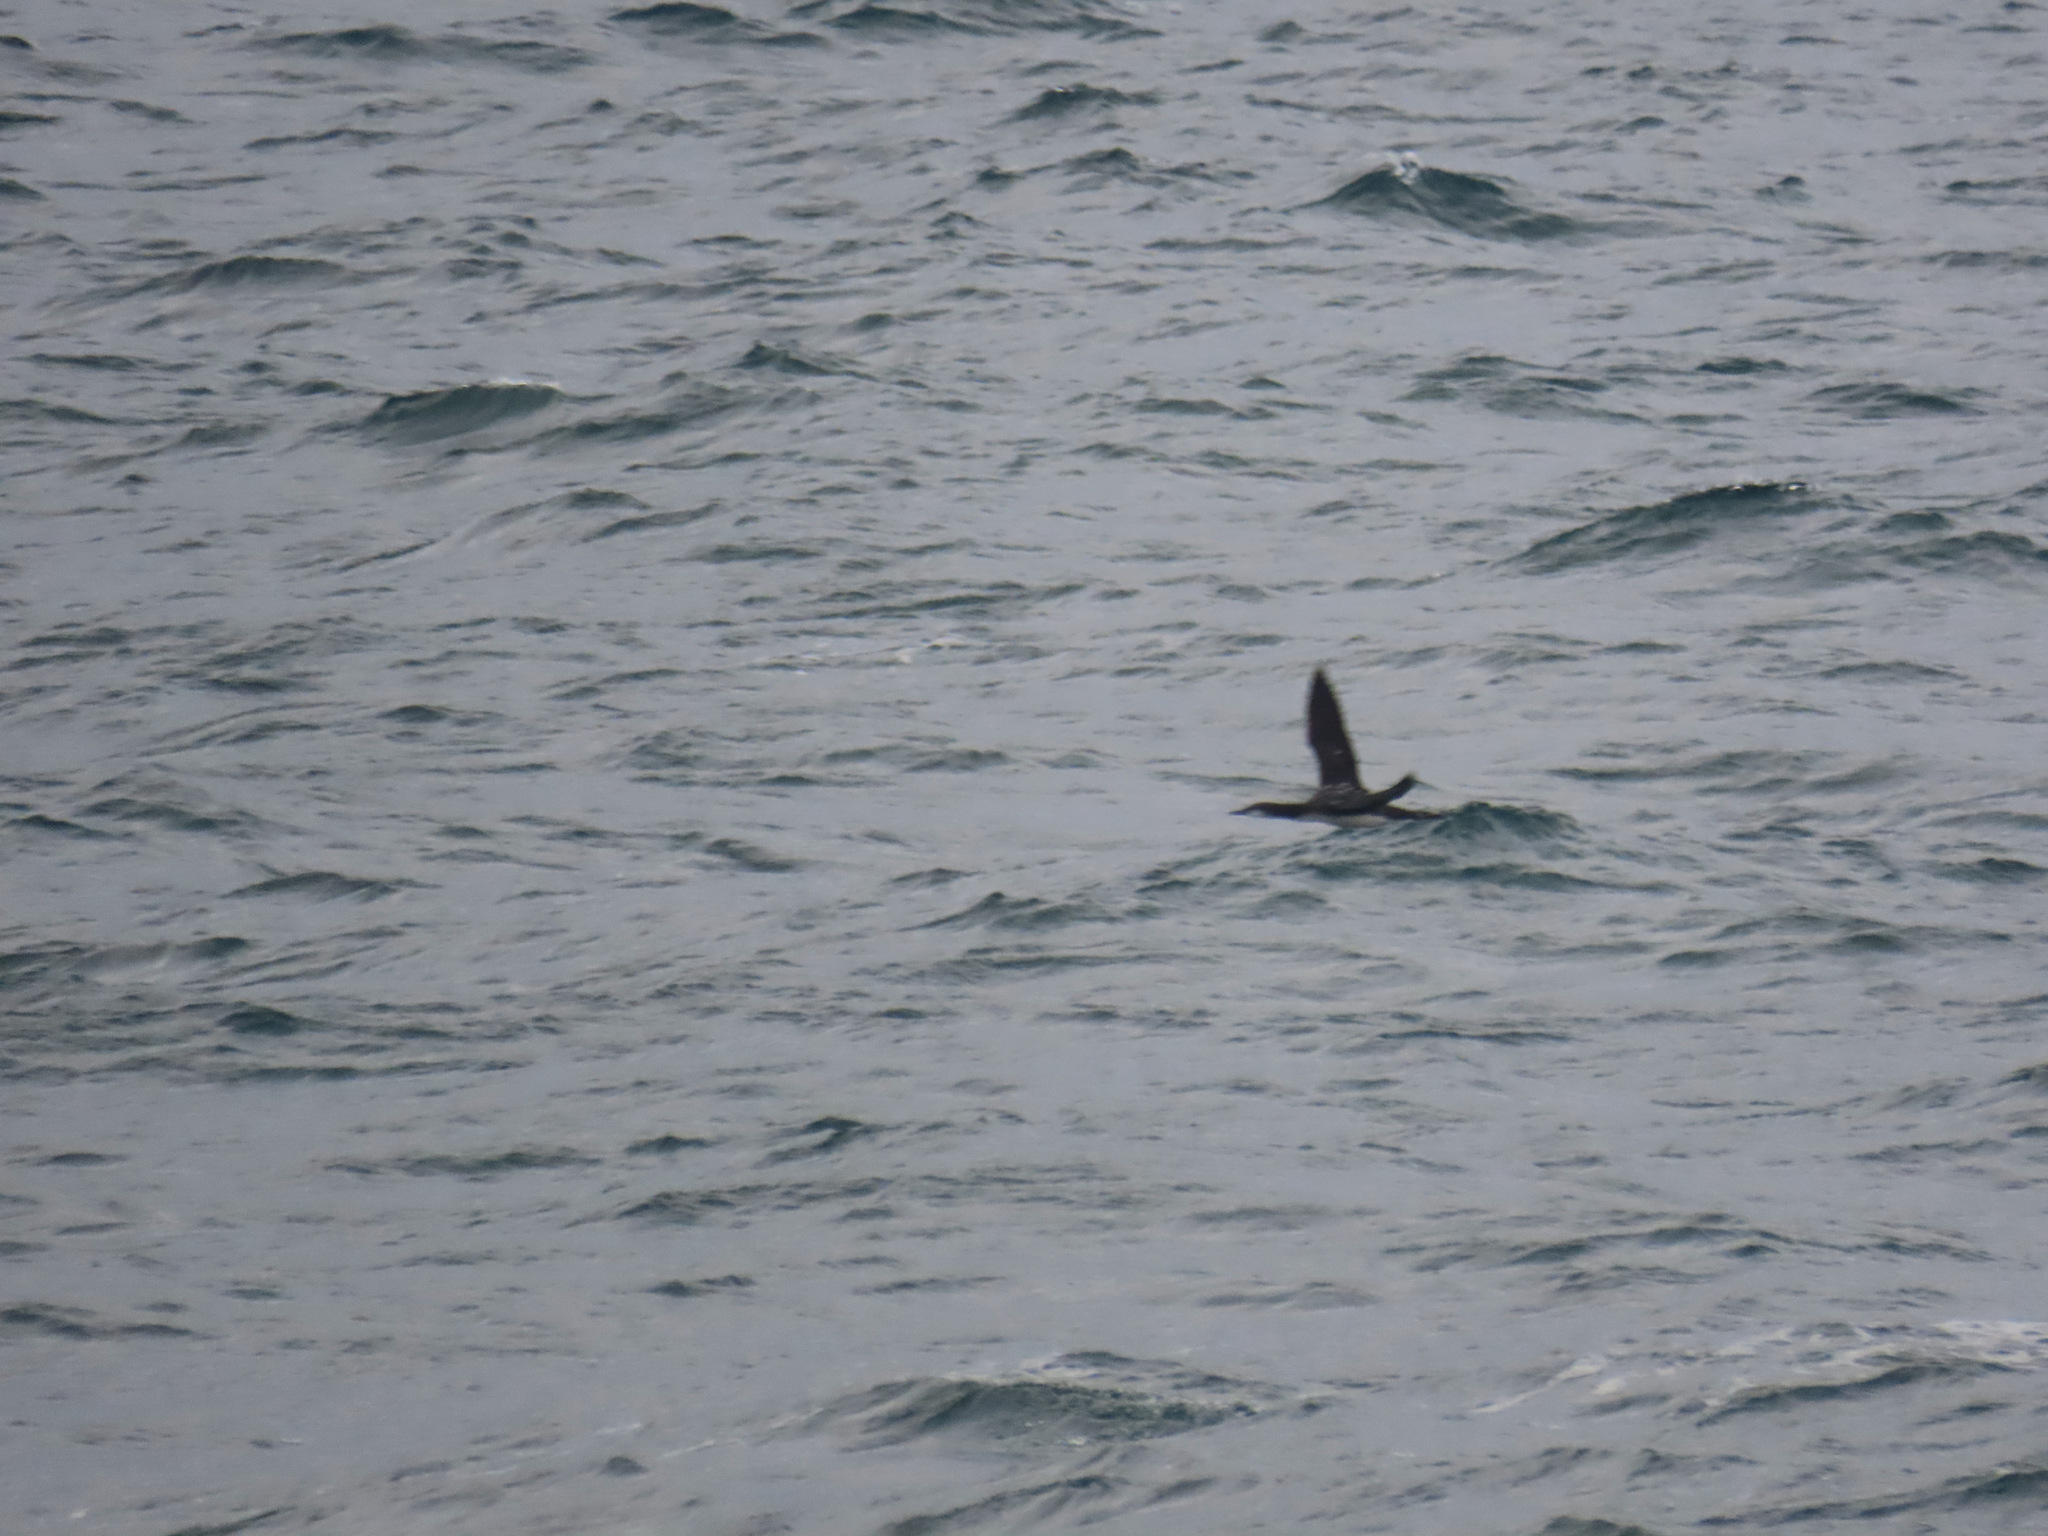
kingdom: Animalia
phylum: Chordata
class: Aves
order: Gaviiformes
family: Gaviidae
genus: Gavia
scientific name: Gavia immer
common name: Common loon
